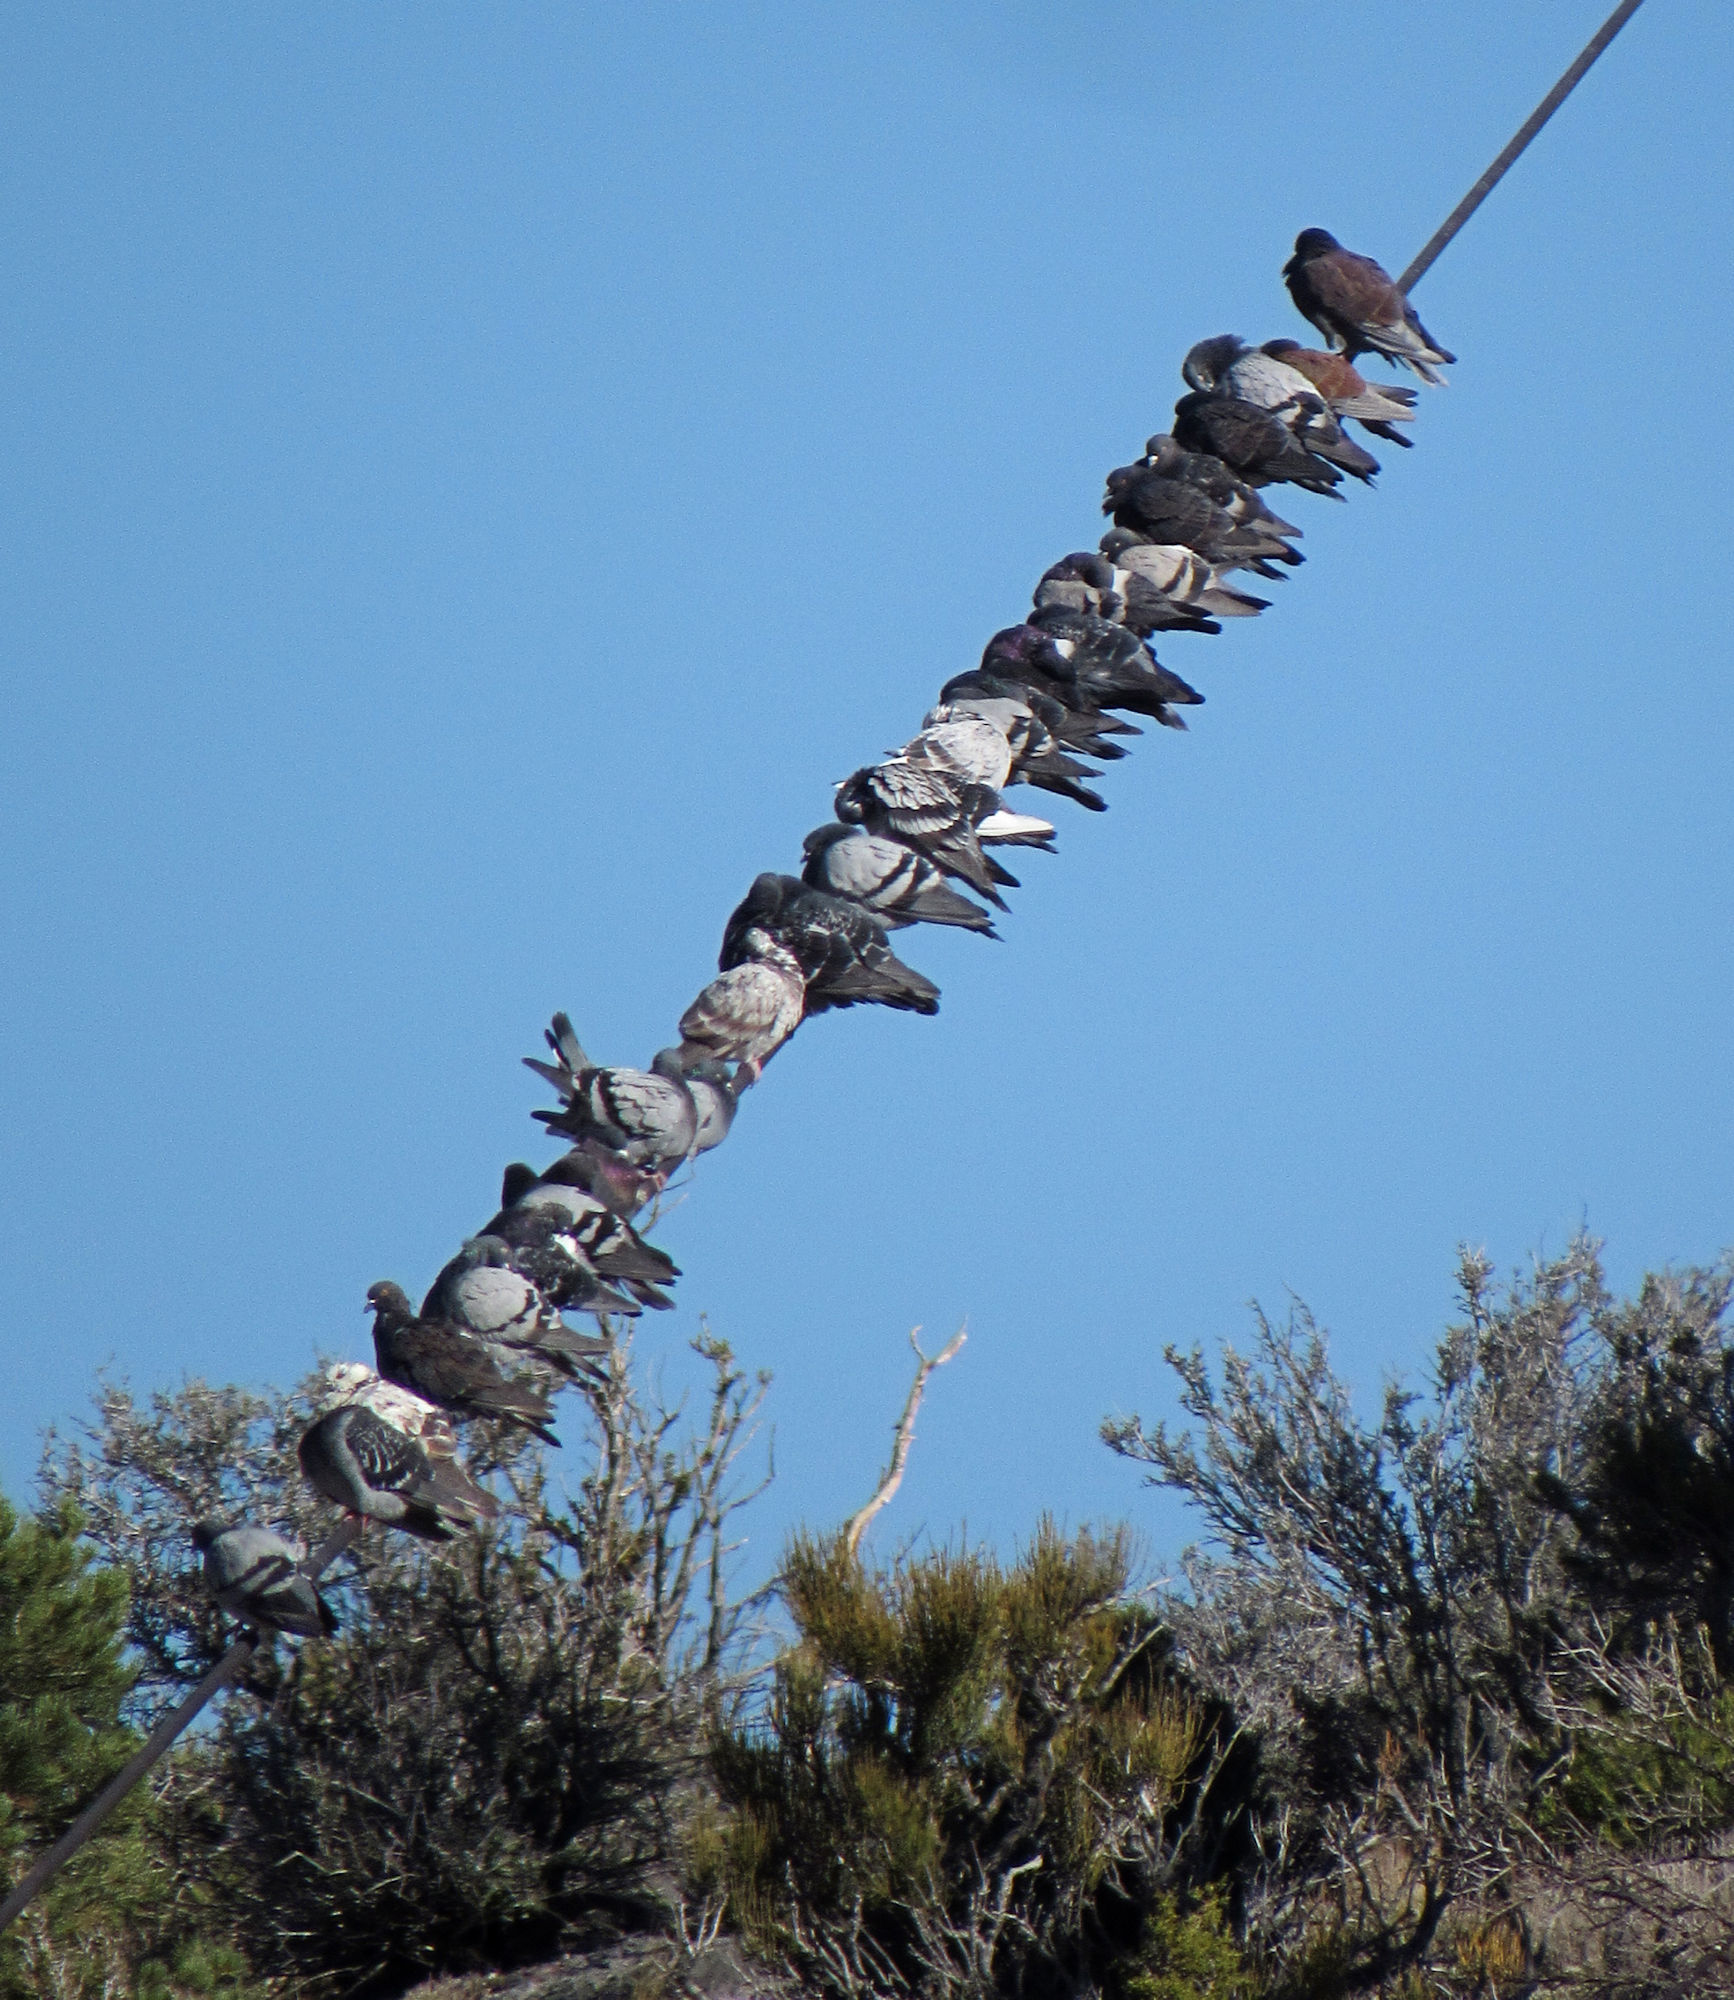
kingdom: Animalia
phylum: Chordata
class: Aves
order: Columbiformes
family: Columbidae
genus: Columba
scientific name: Columba livia
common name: Rock pigeon
